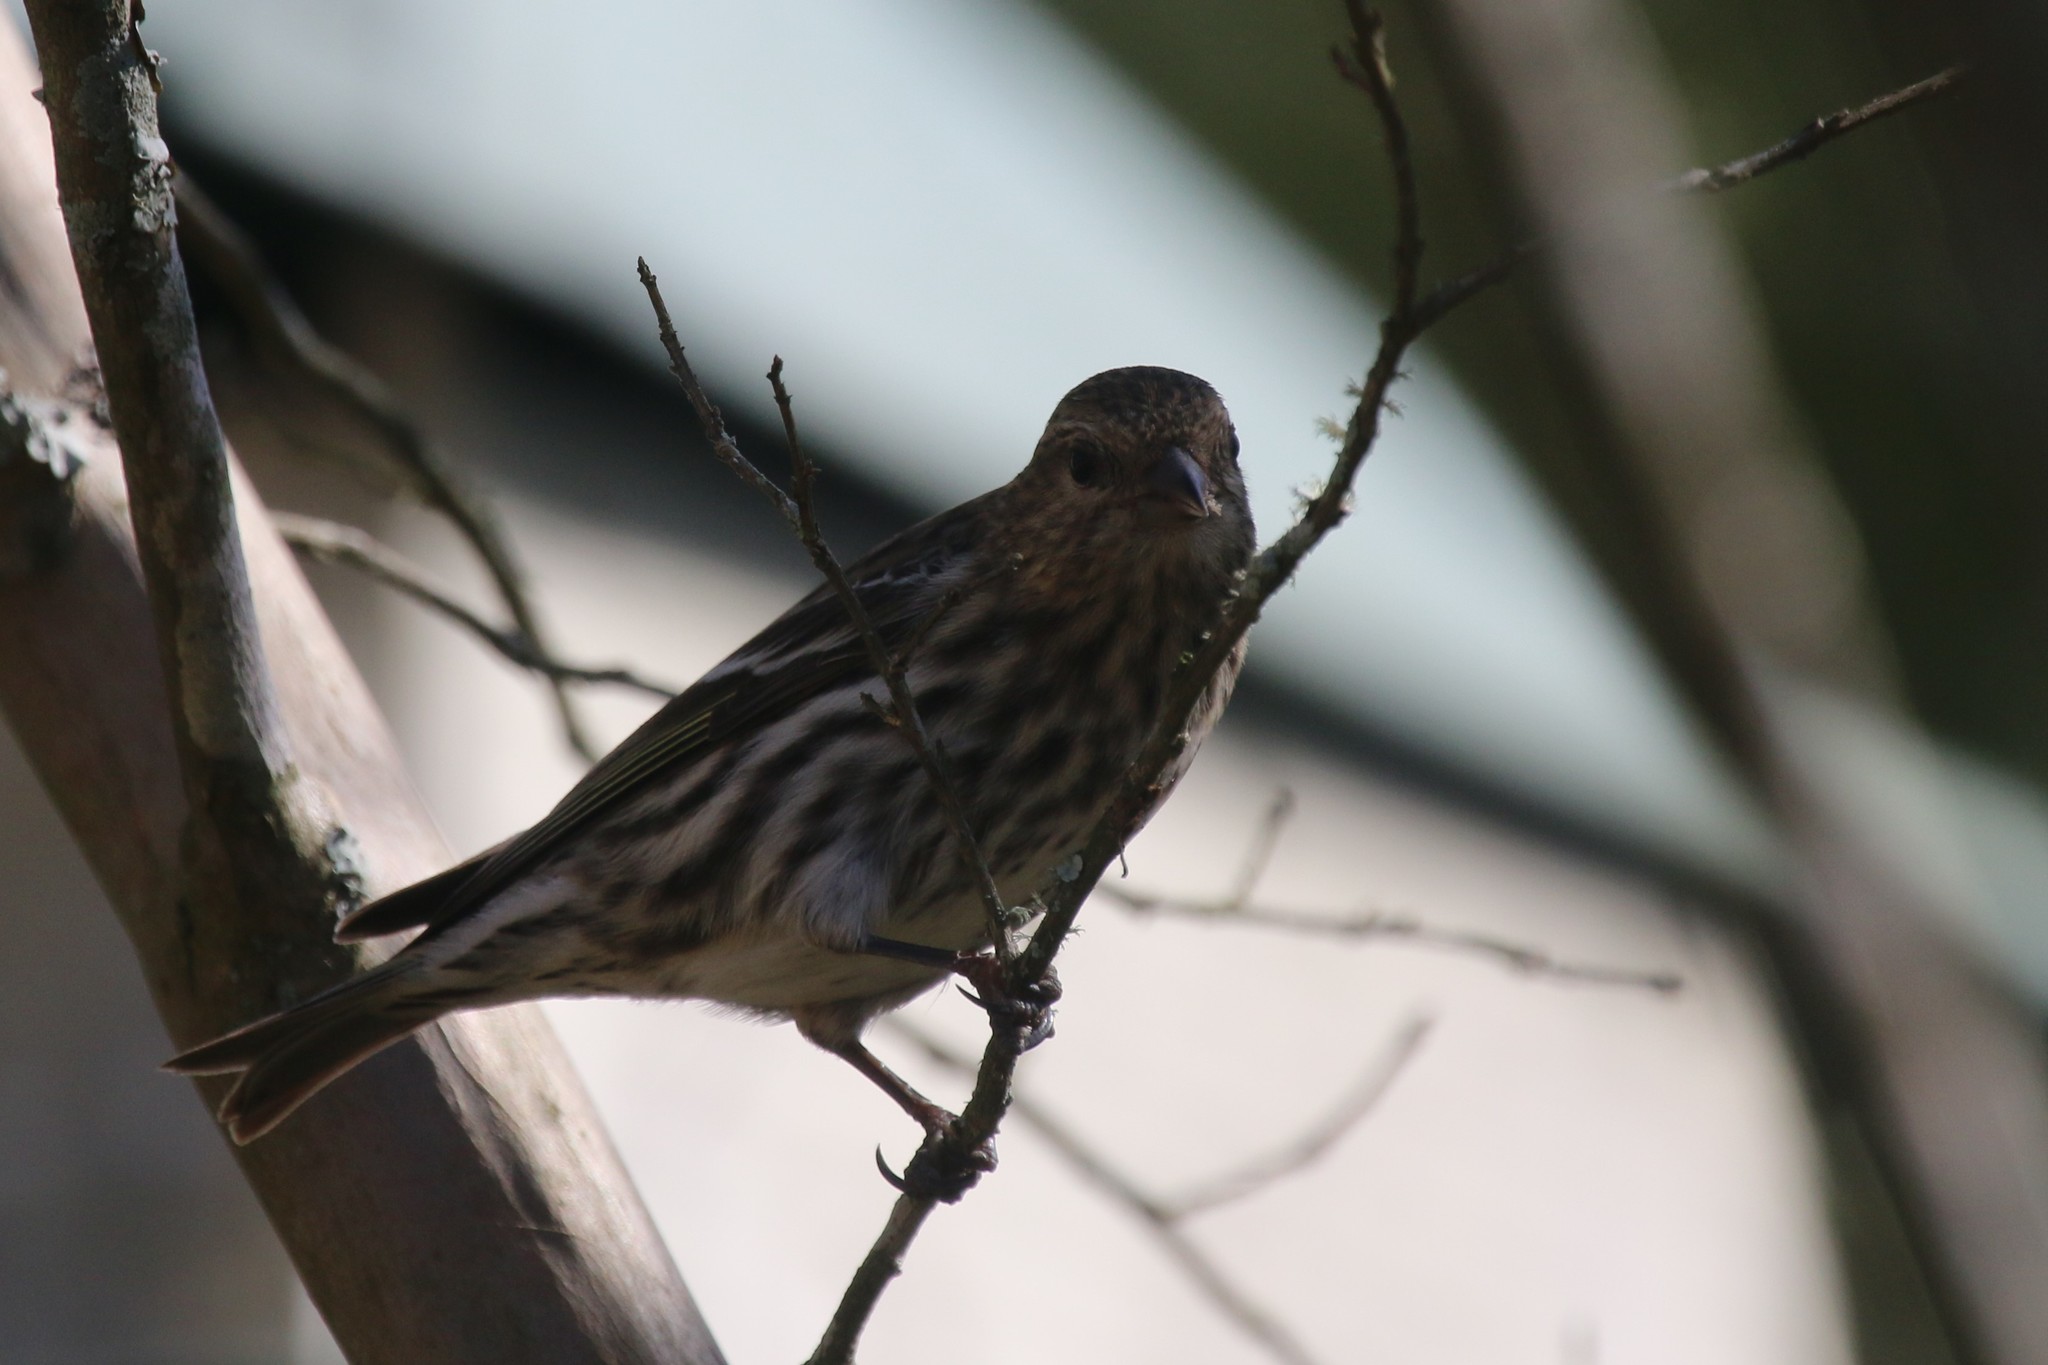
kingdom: Animalia
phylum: Chordata
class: Aves
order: Passeriformes
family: Fringillidae
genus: Spinus
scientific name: Spinus pinus
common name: Pine siskin
